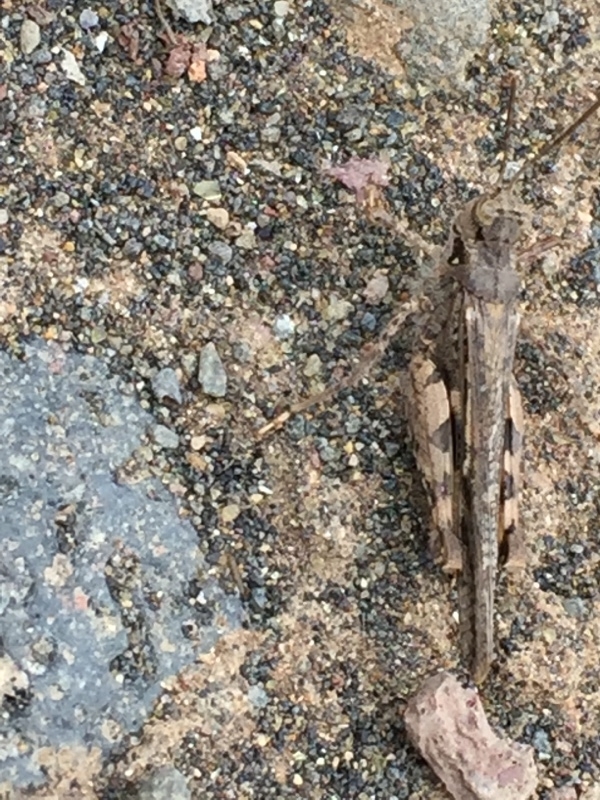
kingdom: Animalia
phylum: Arthropoda
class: Insecta
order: Orthoptera
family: Acrididae
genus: Acrotylus
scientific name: Acrotylus insubricus
